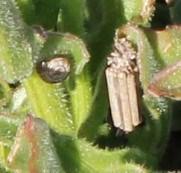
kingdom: Plantae
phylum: Tracheophyta
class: Magnoliopsida
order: Asterales
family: Asteraceae
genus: Arctotis
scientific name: Arctotis decurrens
